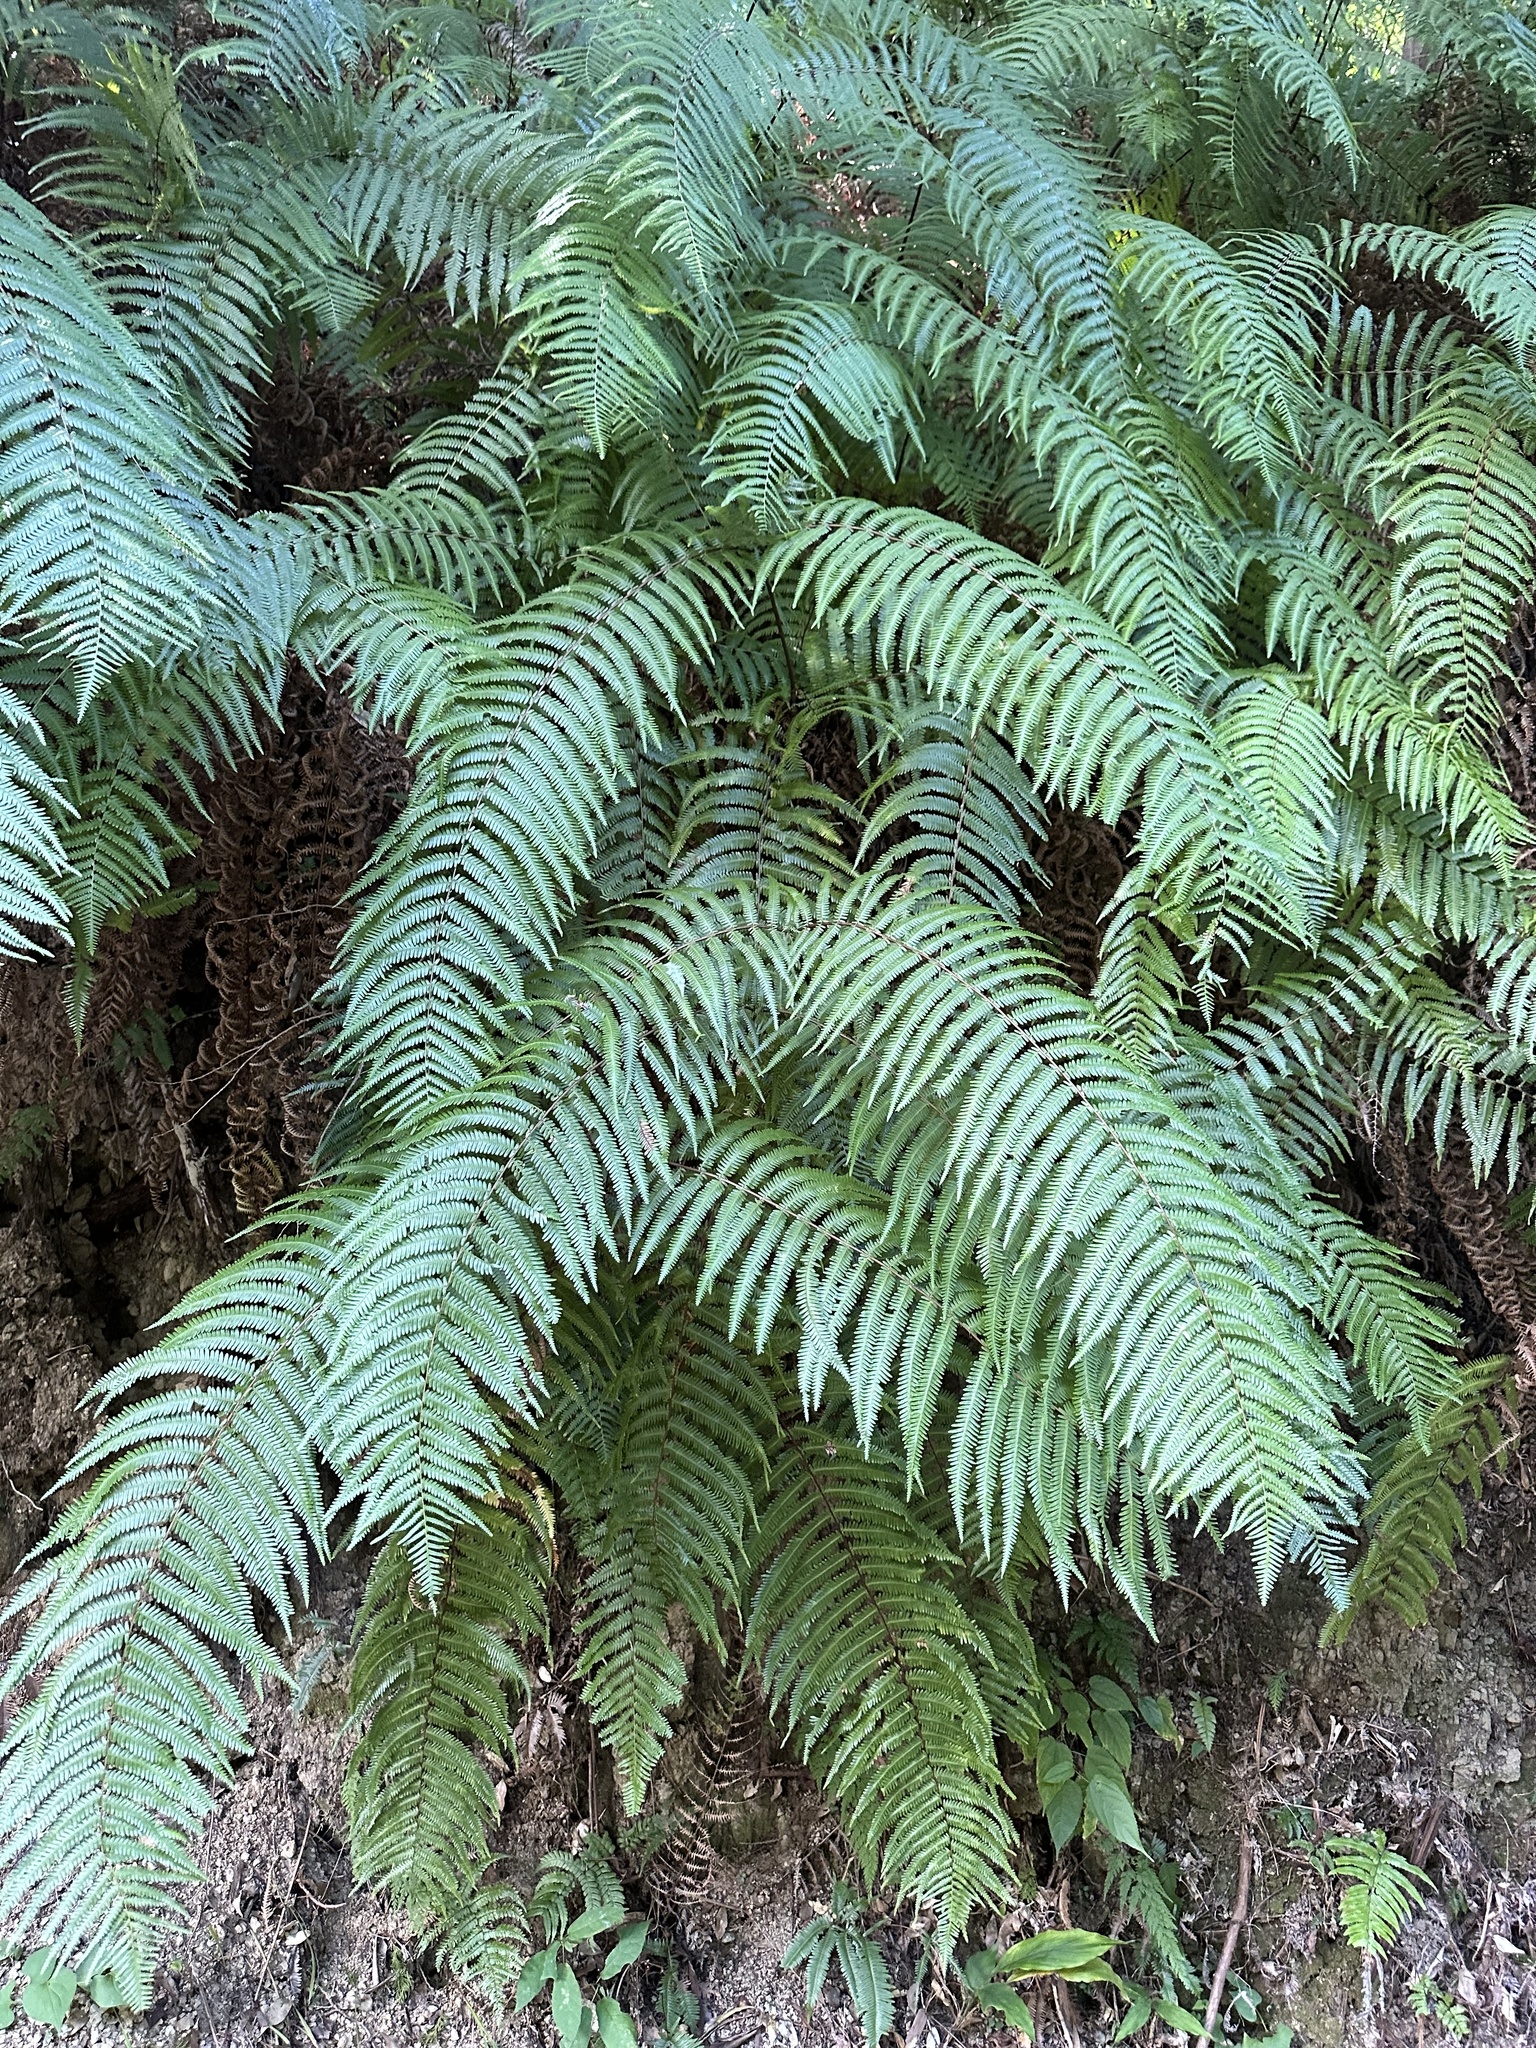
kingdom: Plantae
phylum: Tracheophyta
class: Polypodiopsida
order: Gleicheniales
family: Gleicheniaceae
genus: Diplopterygium
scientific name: Diplopterygium glaucum
